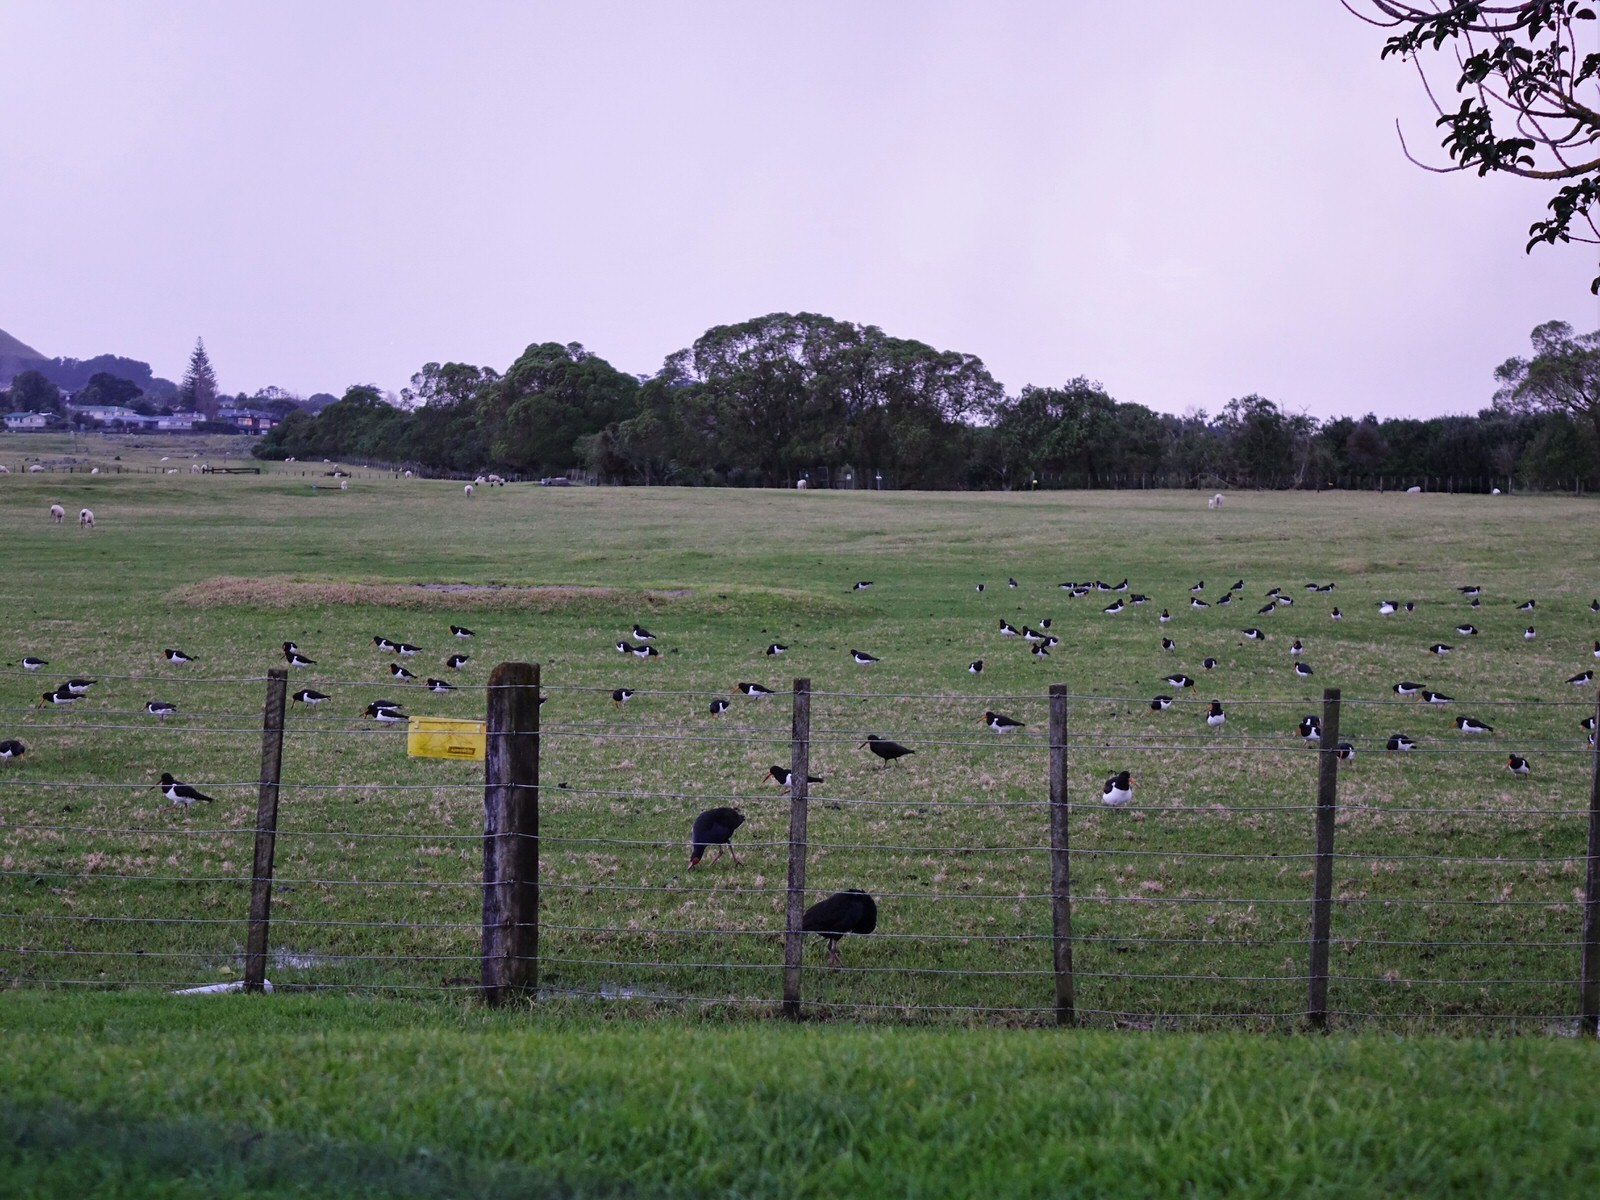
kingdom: Animalia
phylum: Chordata
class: Aves
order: Charadriiformes
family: Haematopodidae
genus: Haematopus
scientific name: Haematopus finschi
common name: South island oystercatcher
